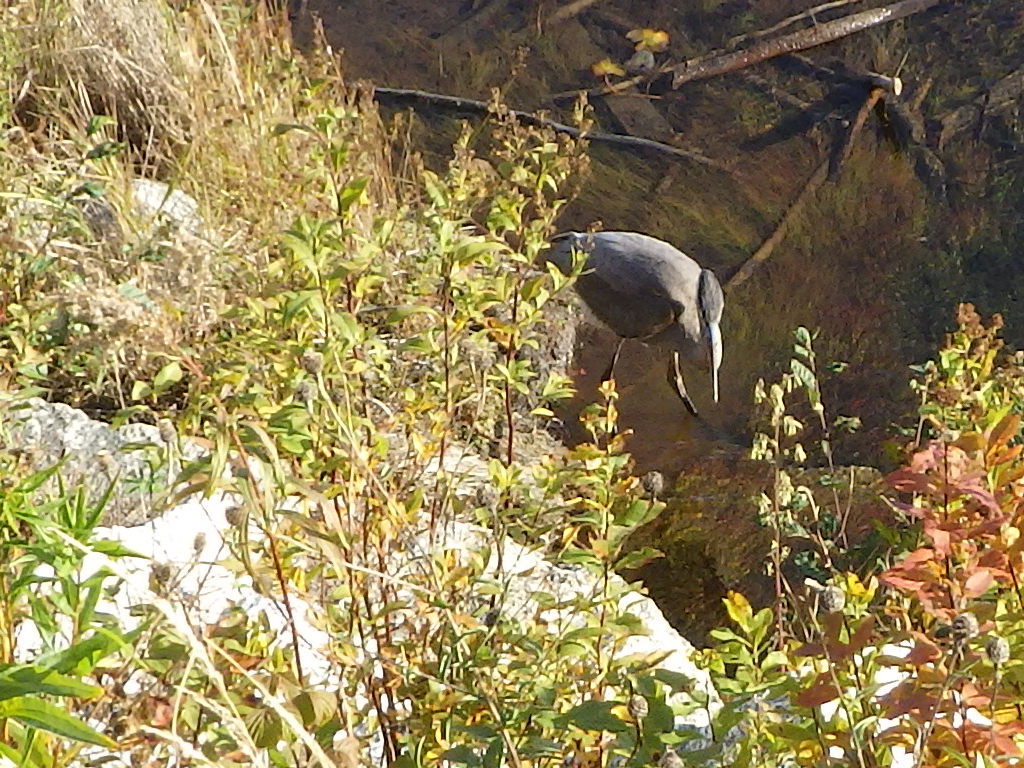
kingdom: Animalia
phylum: Chordata
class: Aves
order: Pelecaniformes
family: Ardeidae
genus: Ardea
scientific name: Ardea herodias
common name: Great blue heron
